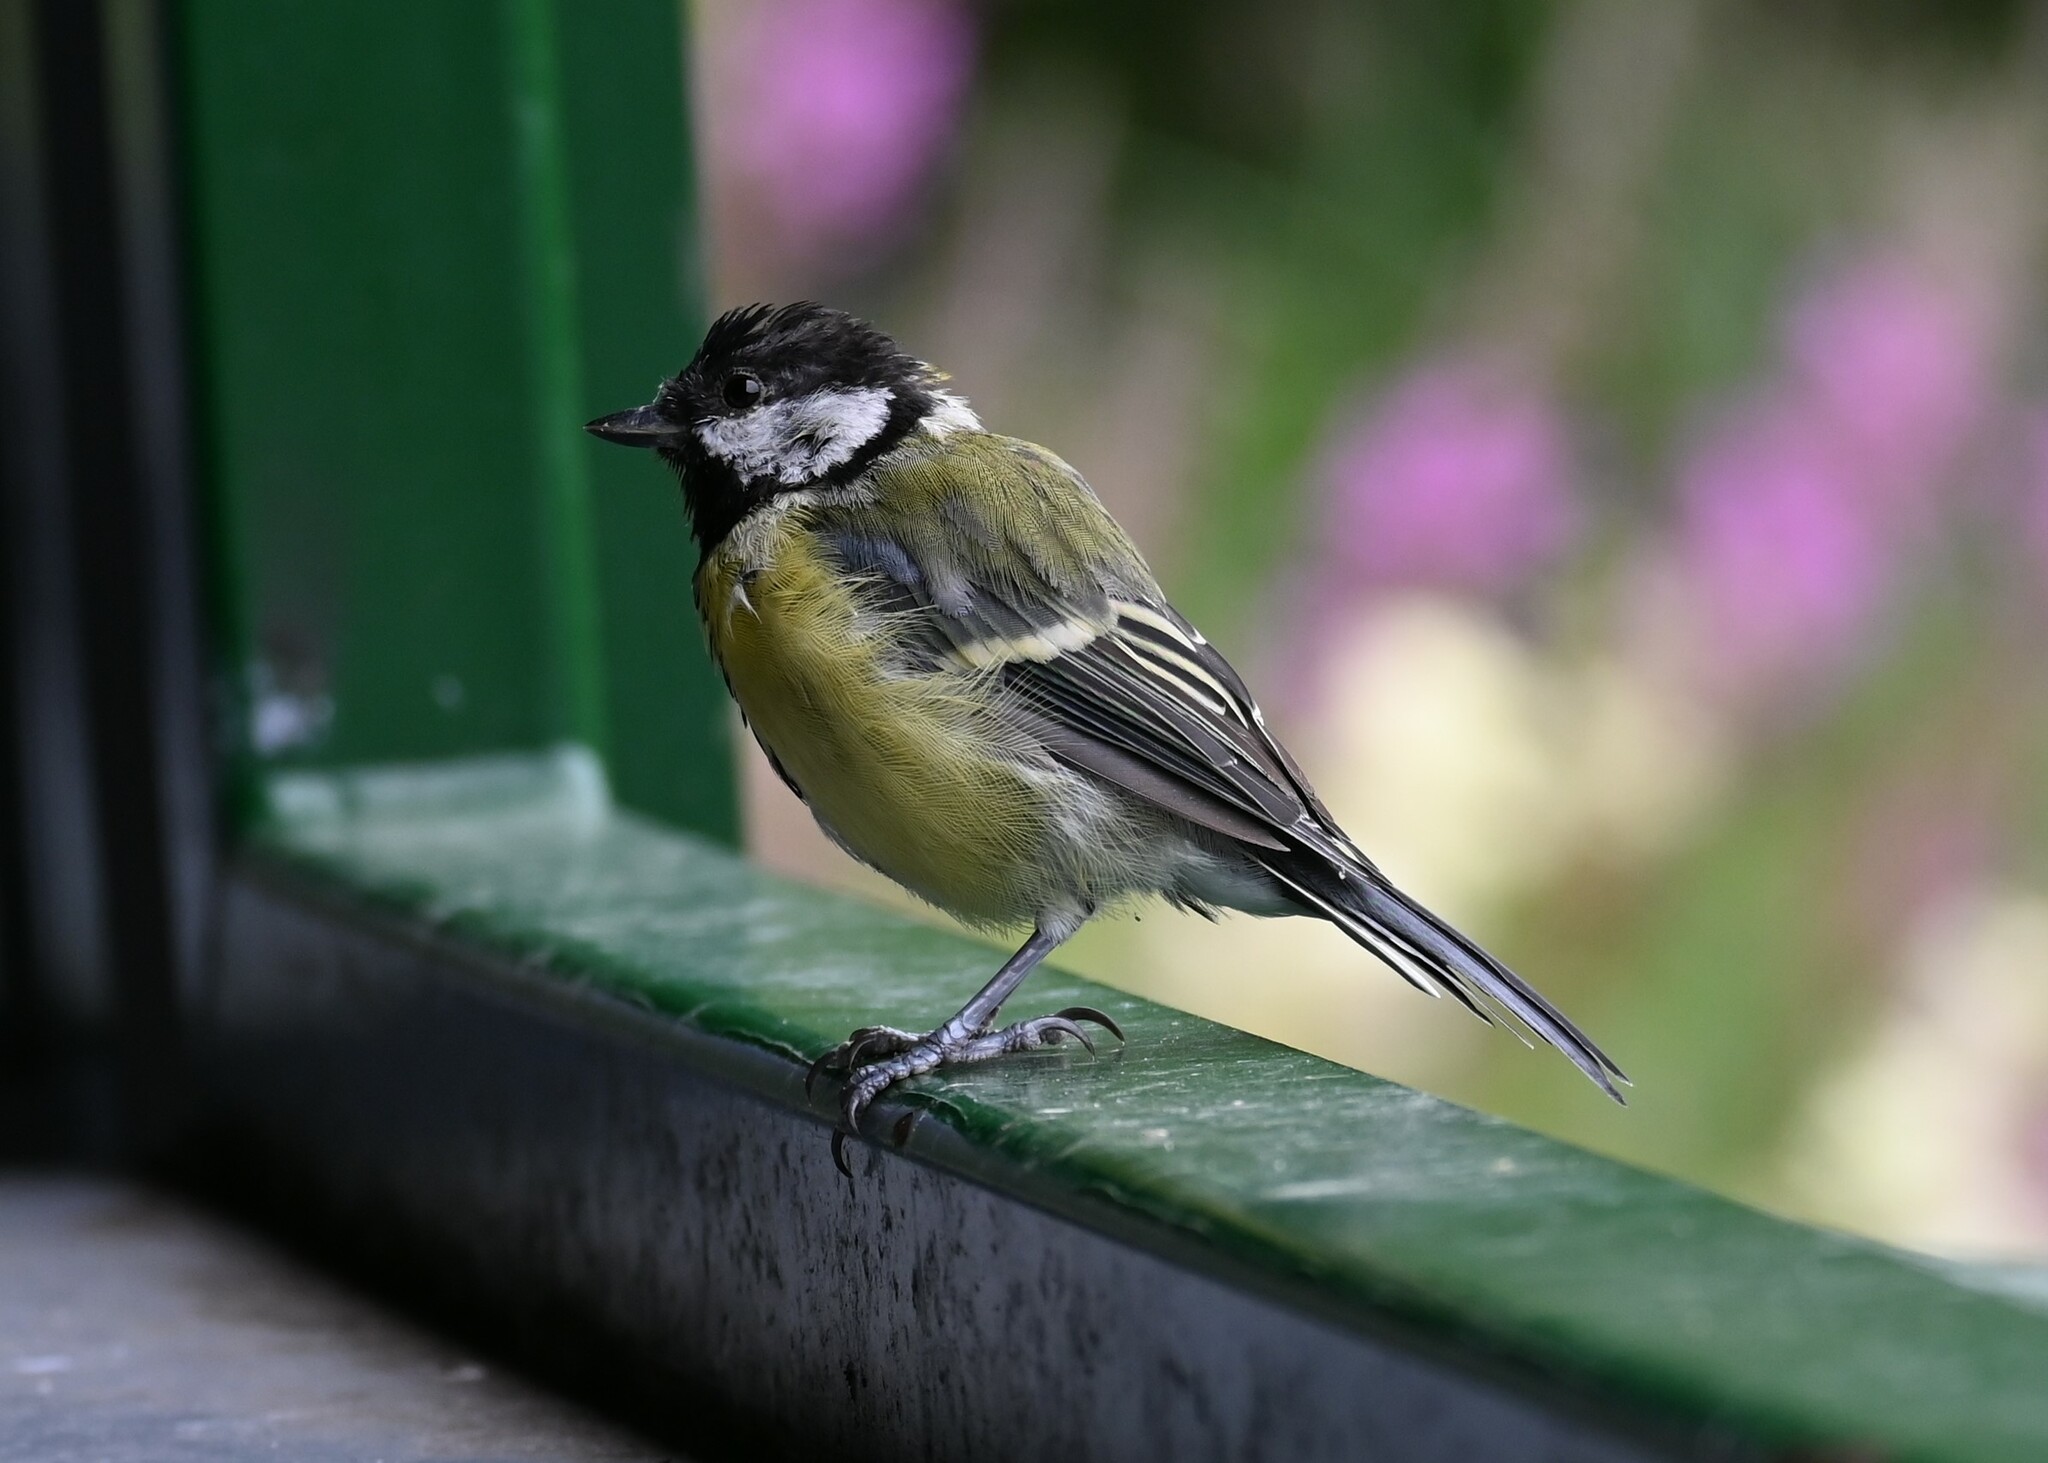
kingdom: Animalia
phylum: Chordata
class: Aves
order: Passeriformes
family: Paridae
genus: Parus
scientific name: Parus major
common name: Great tit
